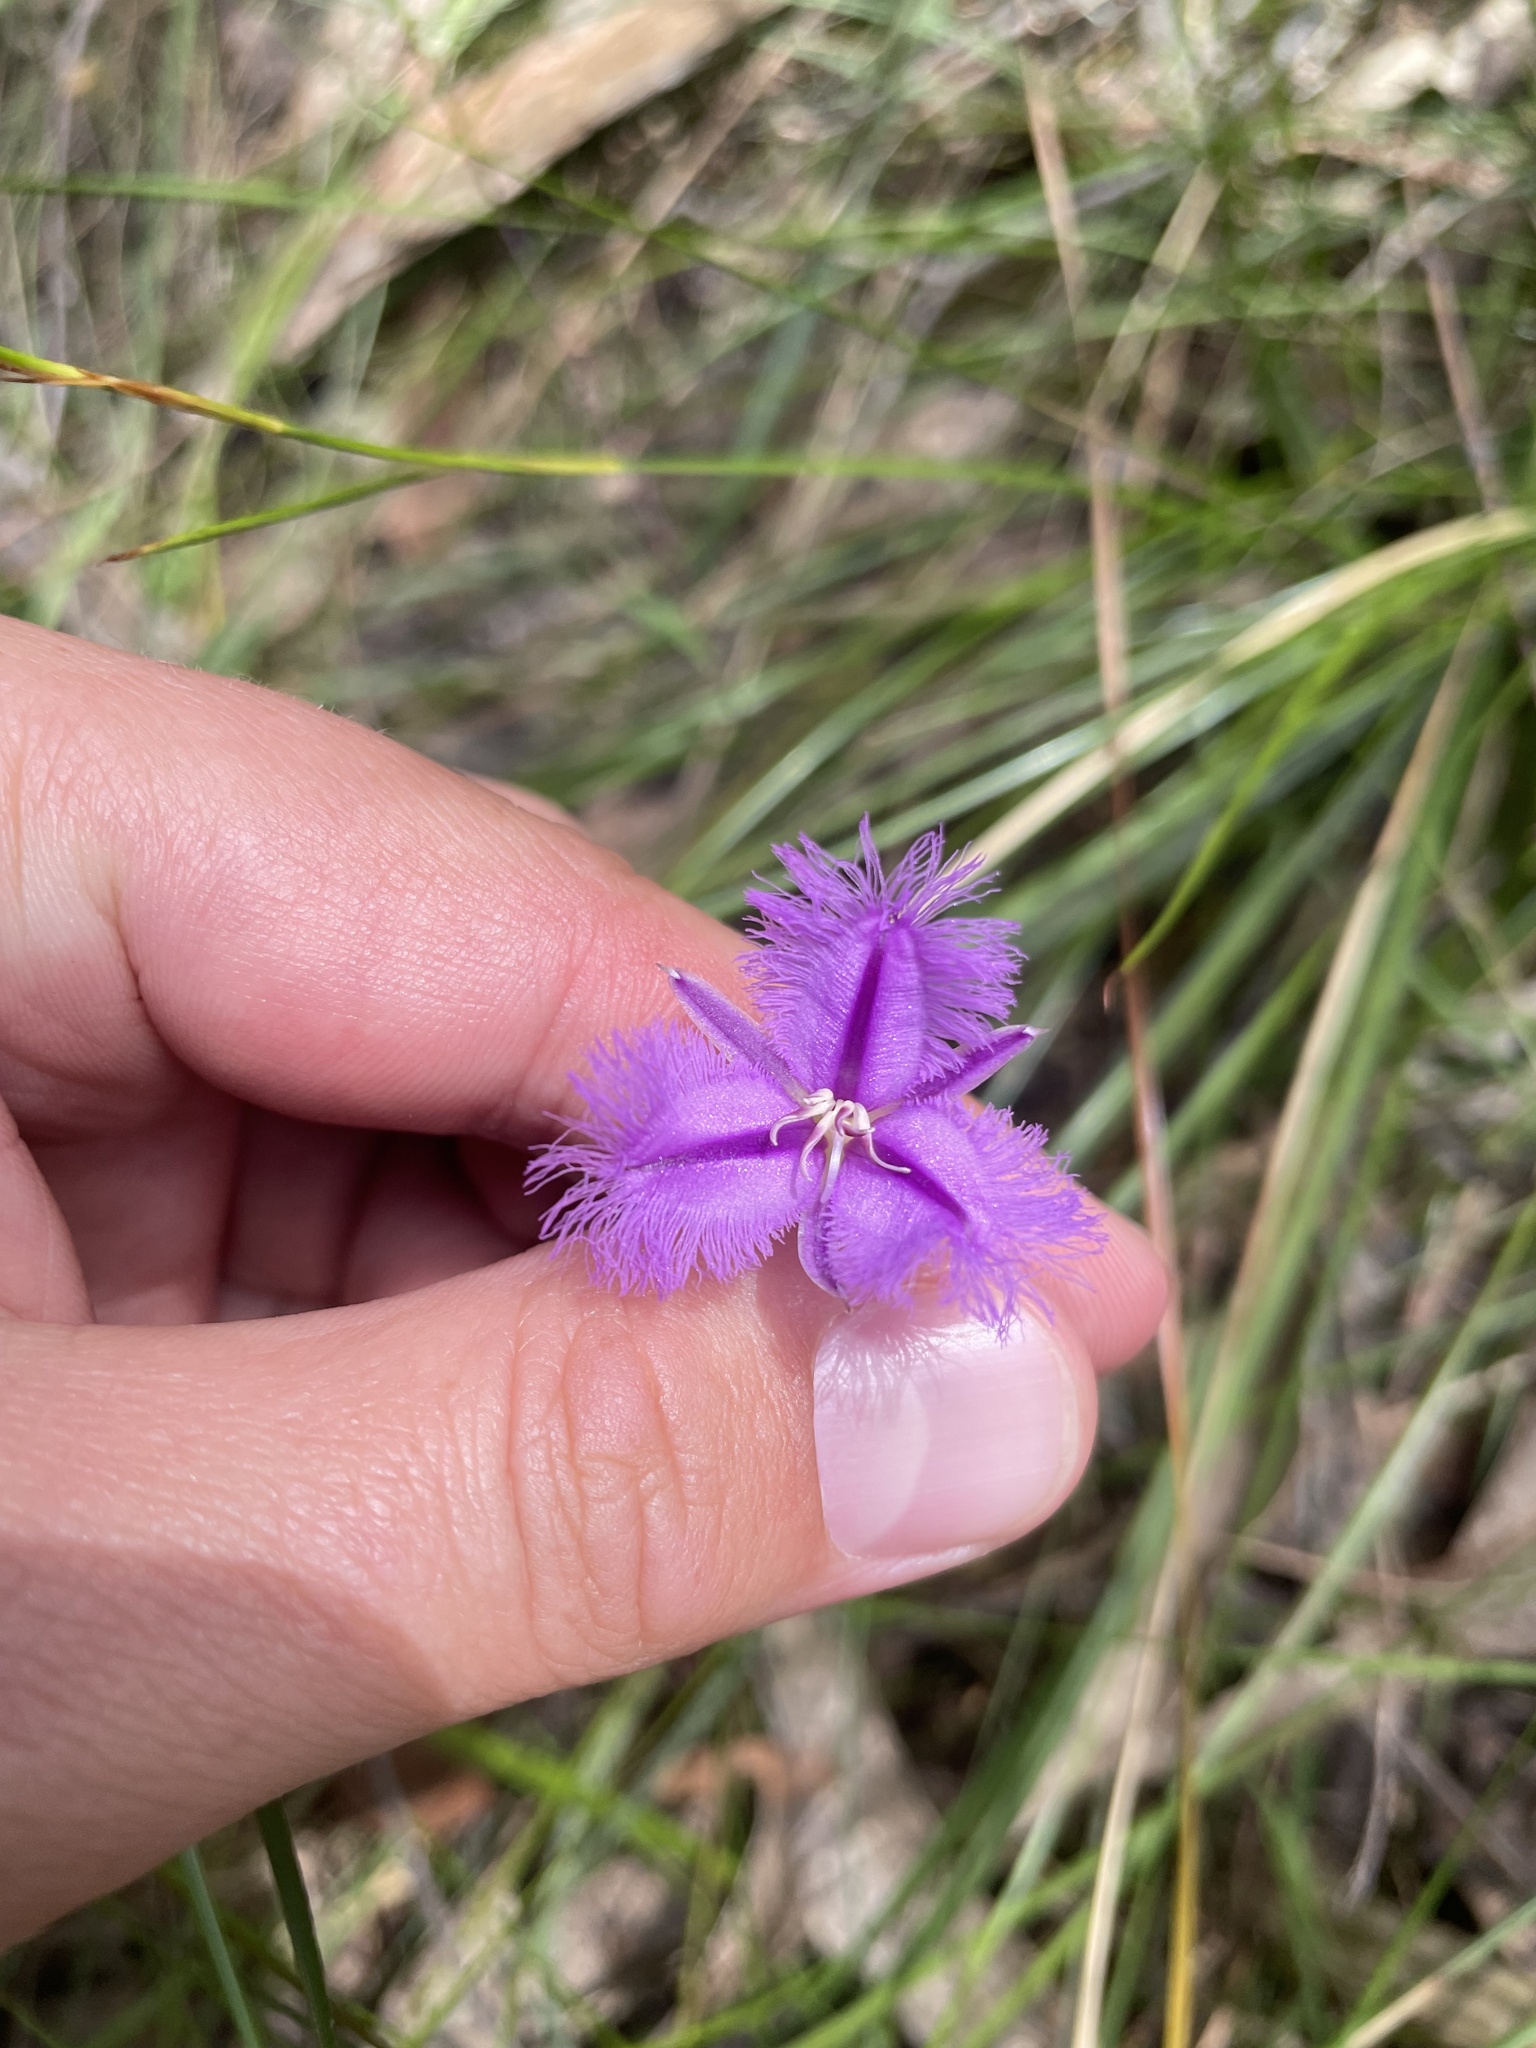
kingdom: Plantae
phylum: Tracheophyta
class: Liliopsida
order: Asparagales
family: Asparagaceae
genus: Thysanotus
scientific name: Thysanotus tuberosus
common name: Common fringed-lily
